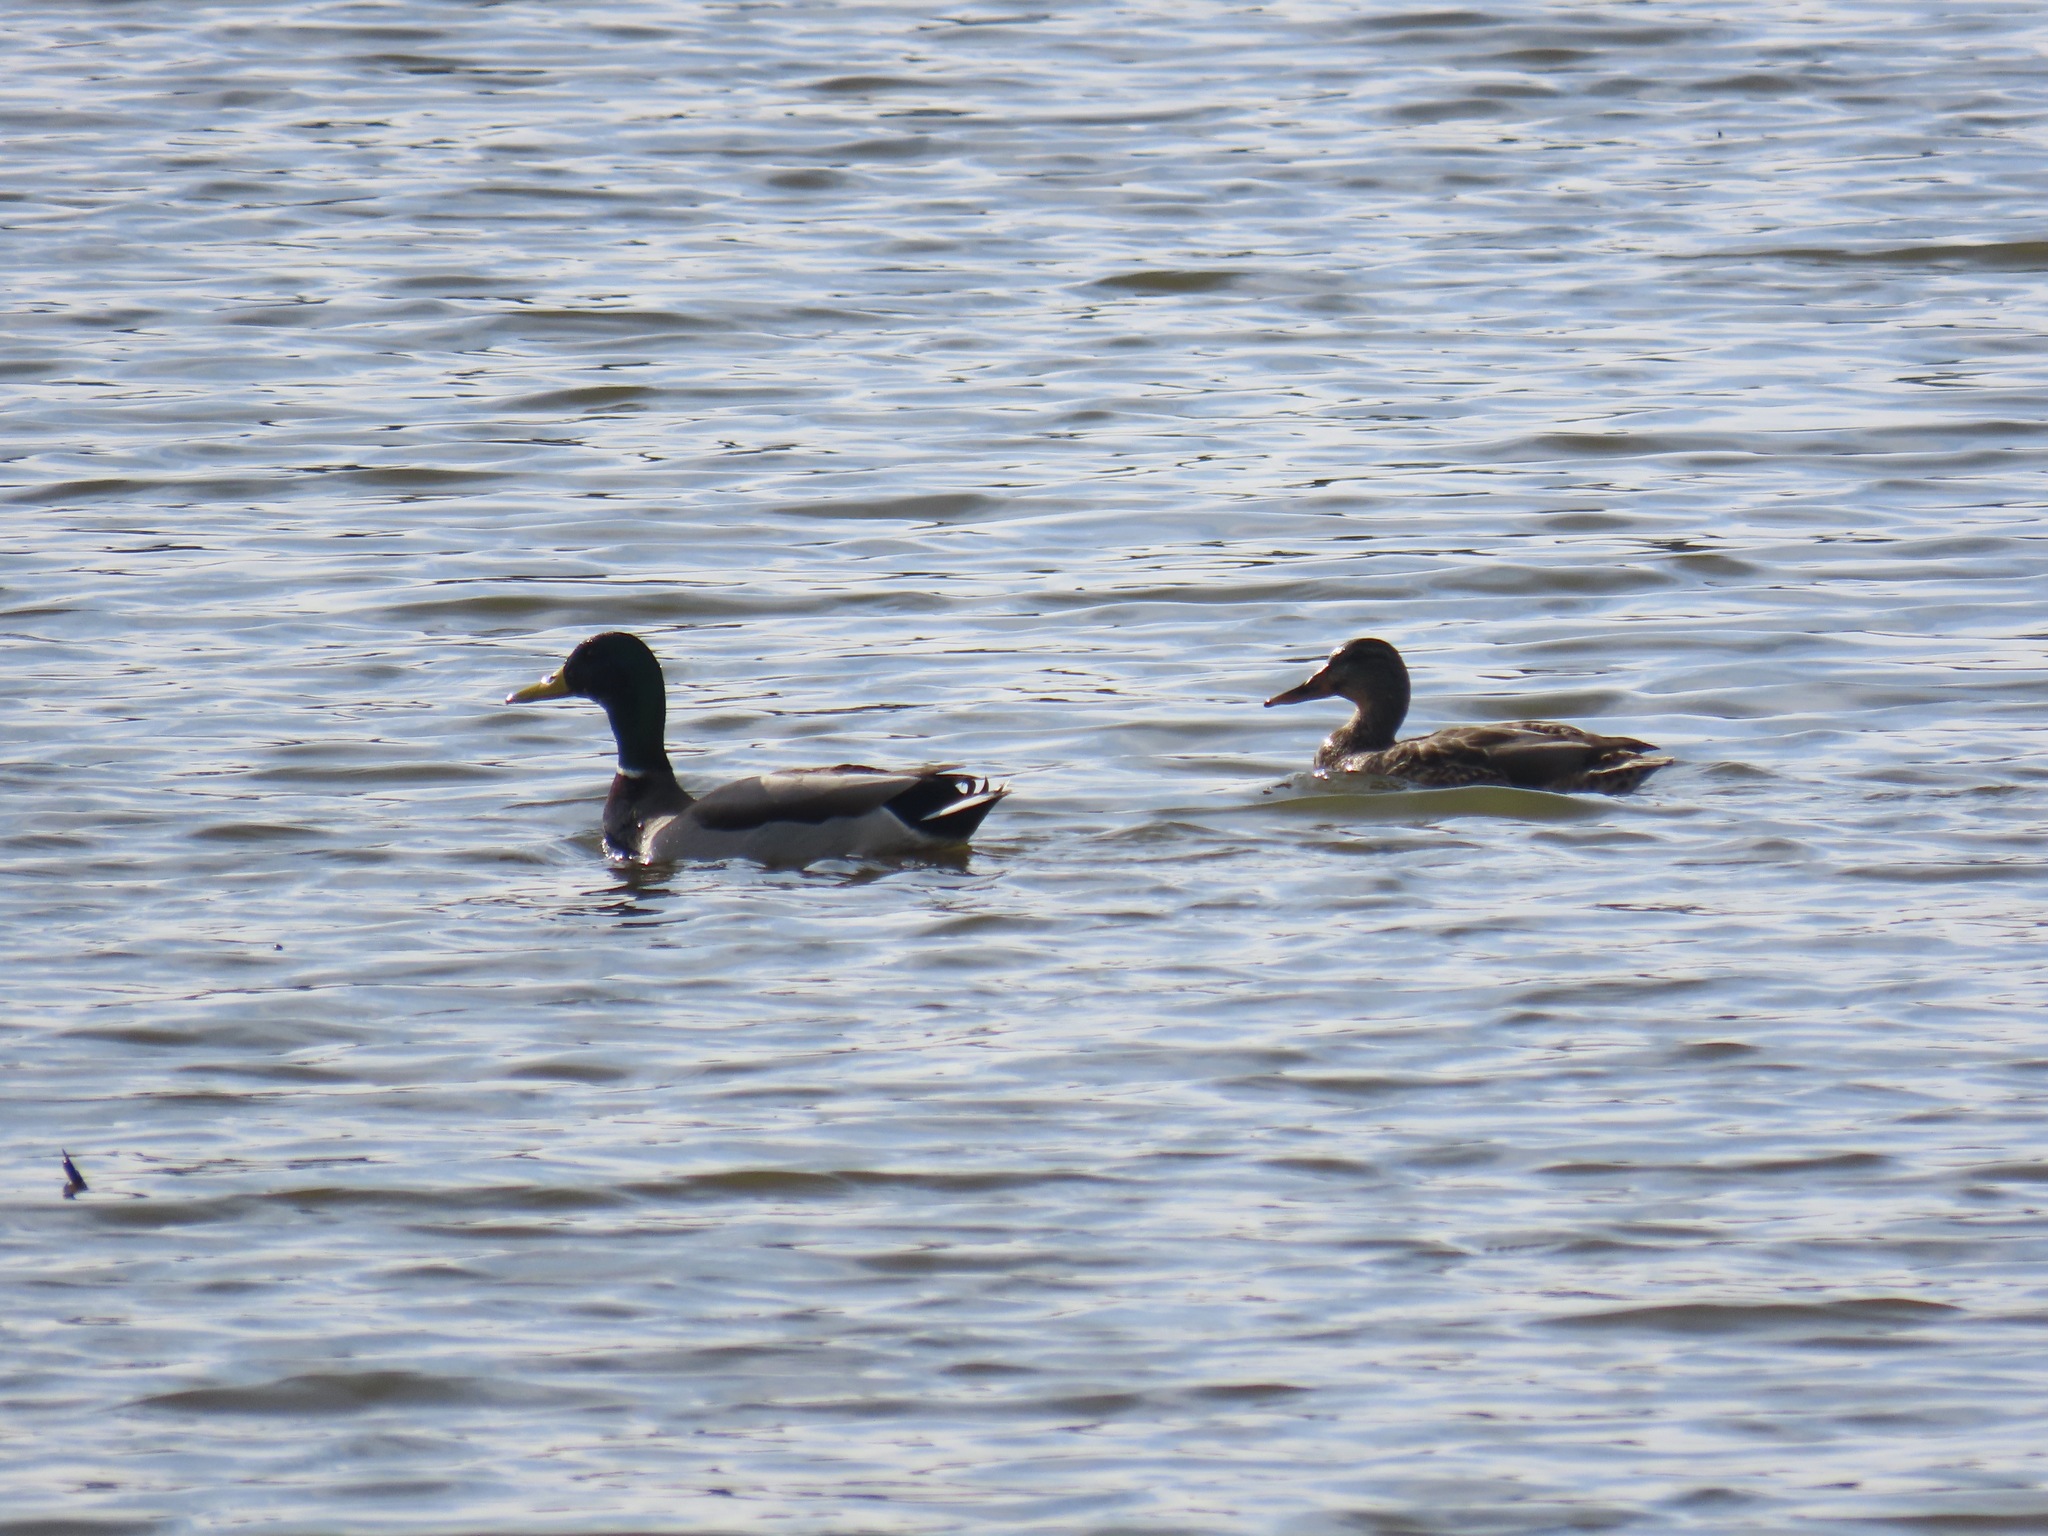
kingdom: Animalia
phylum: Chordata
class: Aves
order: Anseriformes
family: Anatidae
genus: Anas
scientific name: Anas platyrhynchos
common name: Mallard
